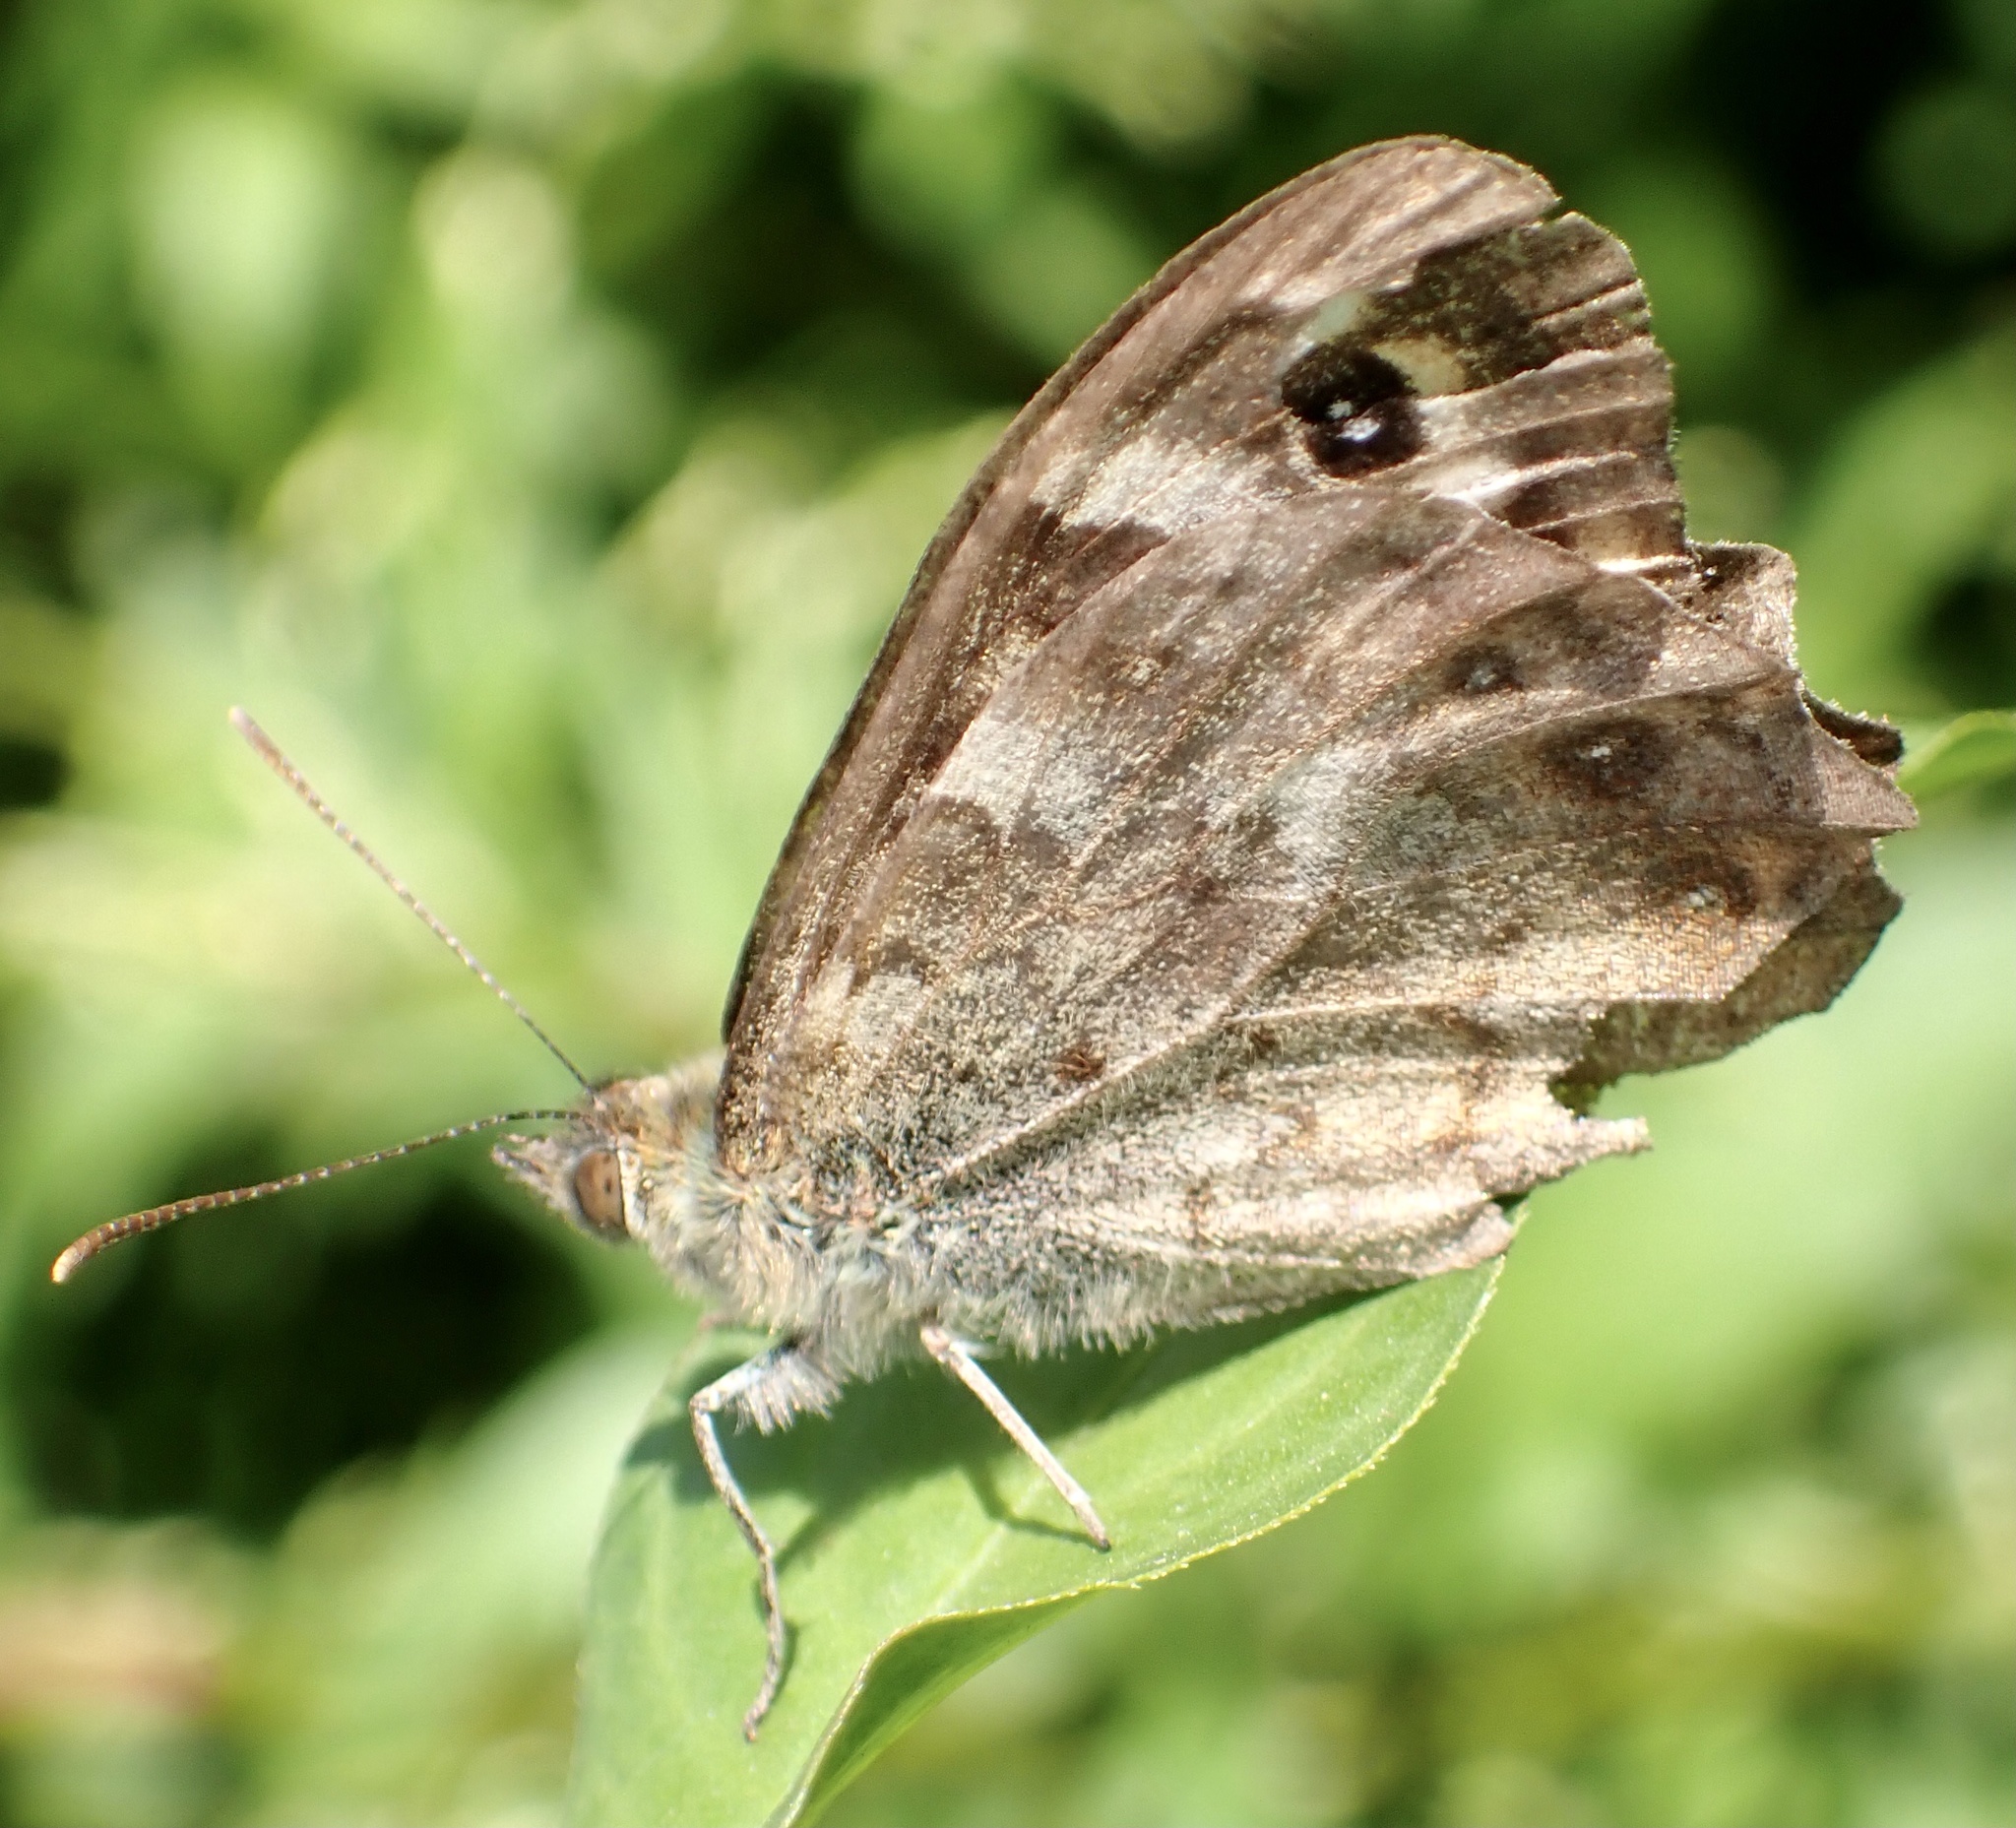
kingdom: Animalia
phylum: Arthropoda
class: Insecta
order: Lepidoptera
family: Nymphalidae
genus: Pararge
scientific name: Pararge Lasiommata megera
